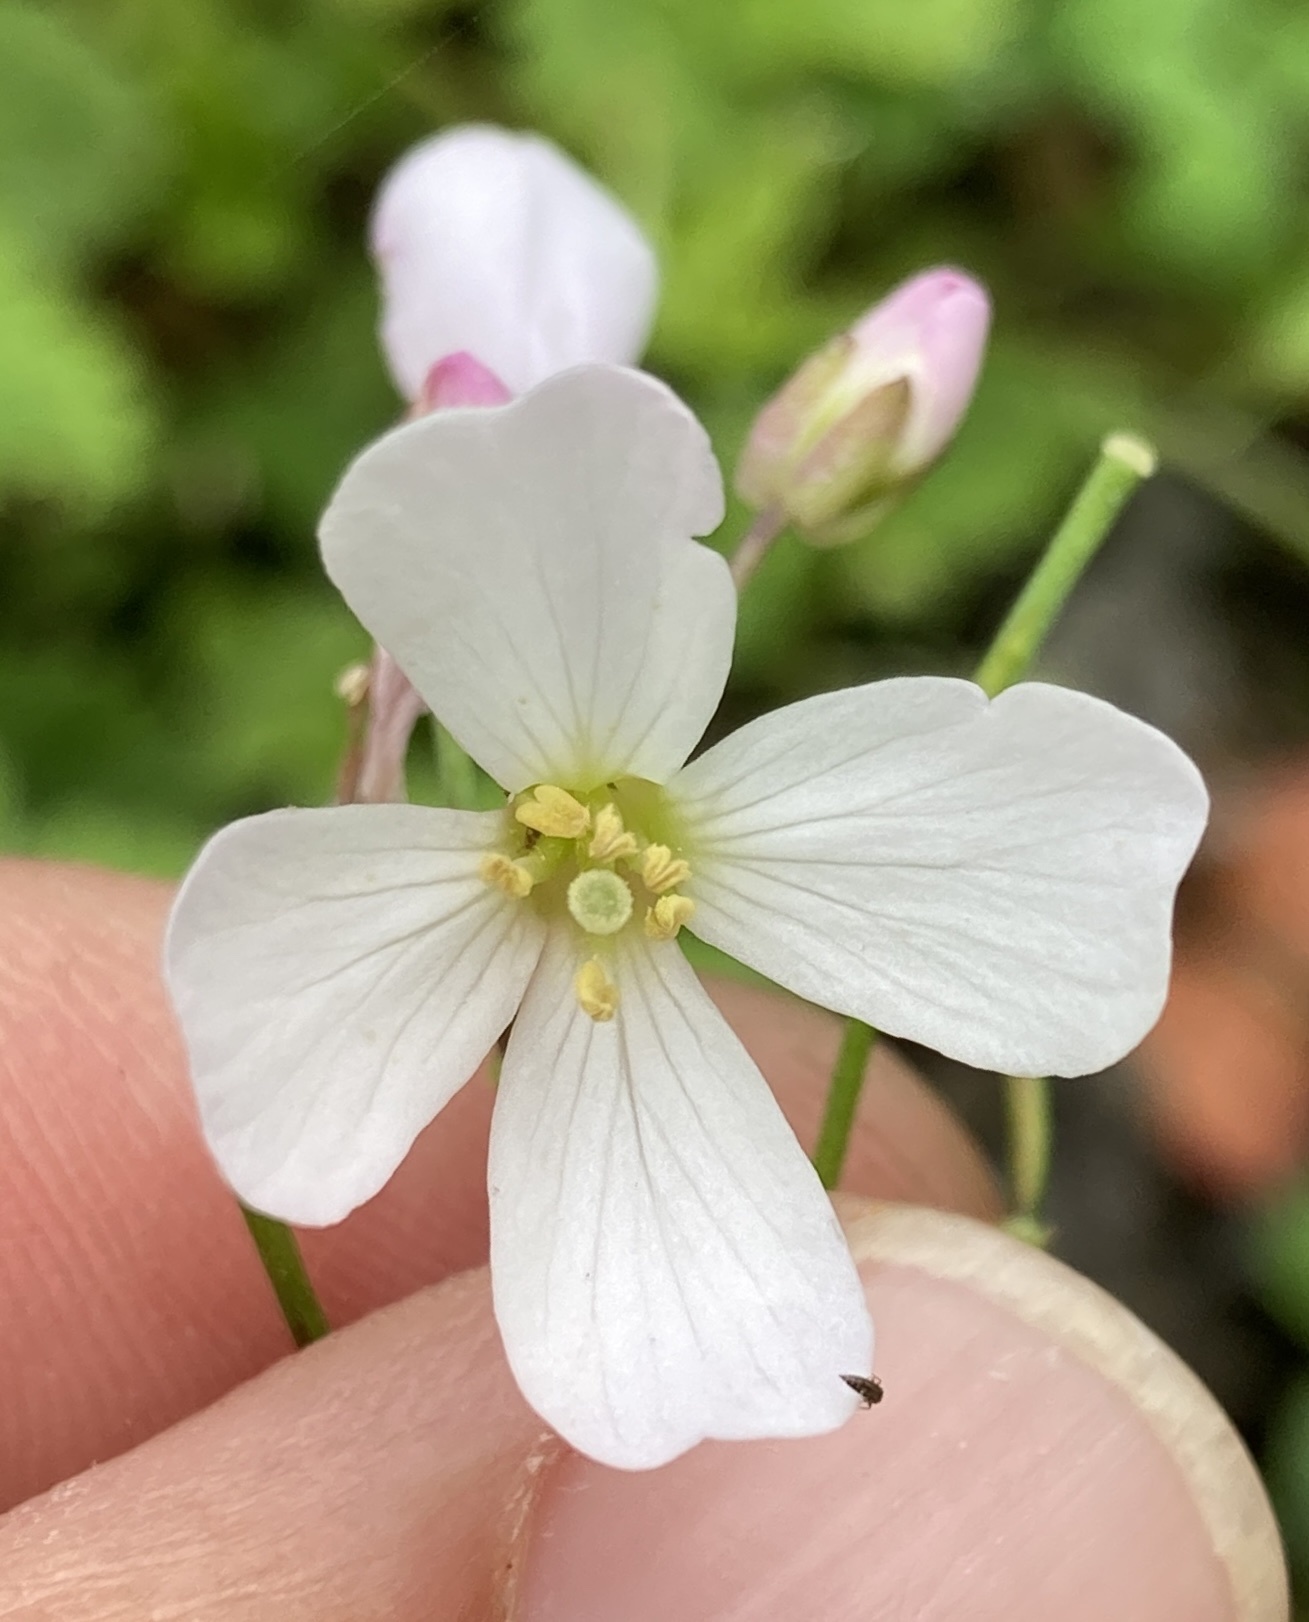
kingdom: Plantae
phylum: Tracheophyta
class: Magnoliopsida
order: Brassicales
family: Brassicaceae
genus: Cardamine
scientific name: Cardamine californica
